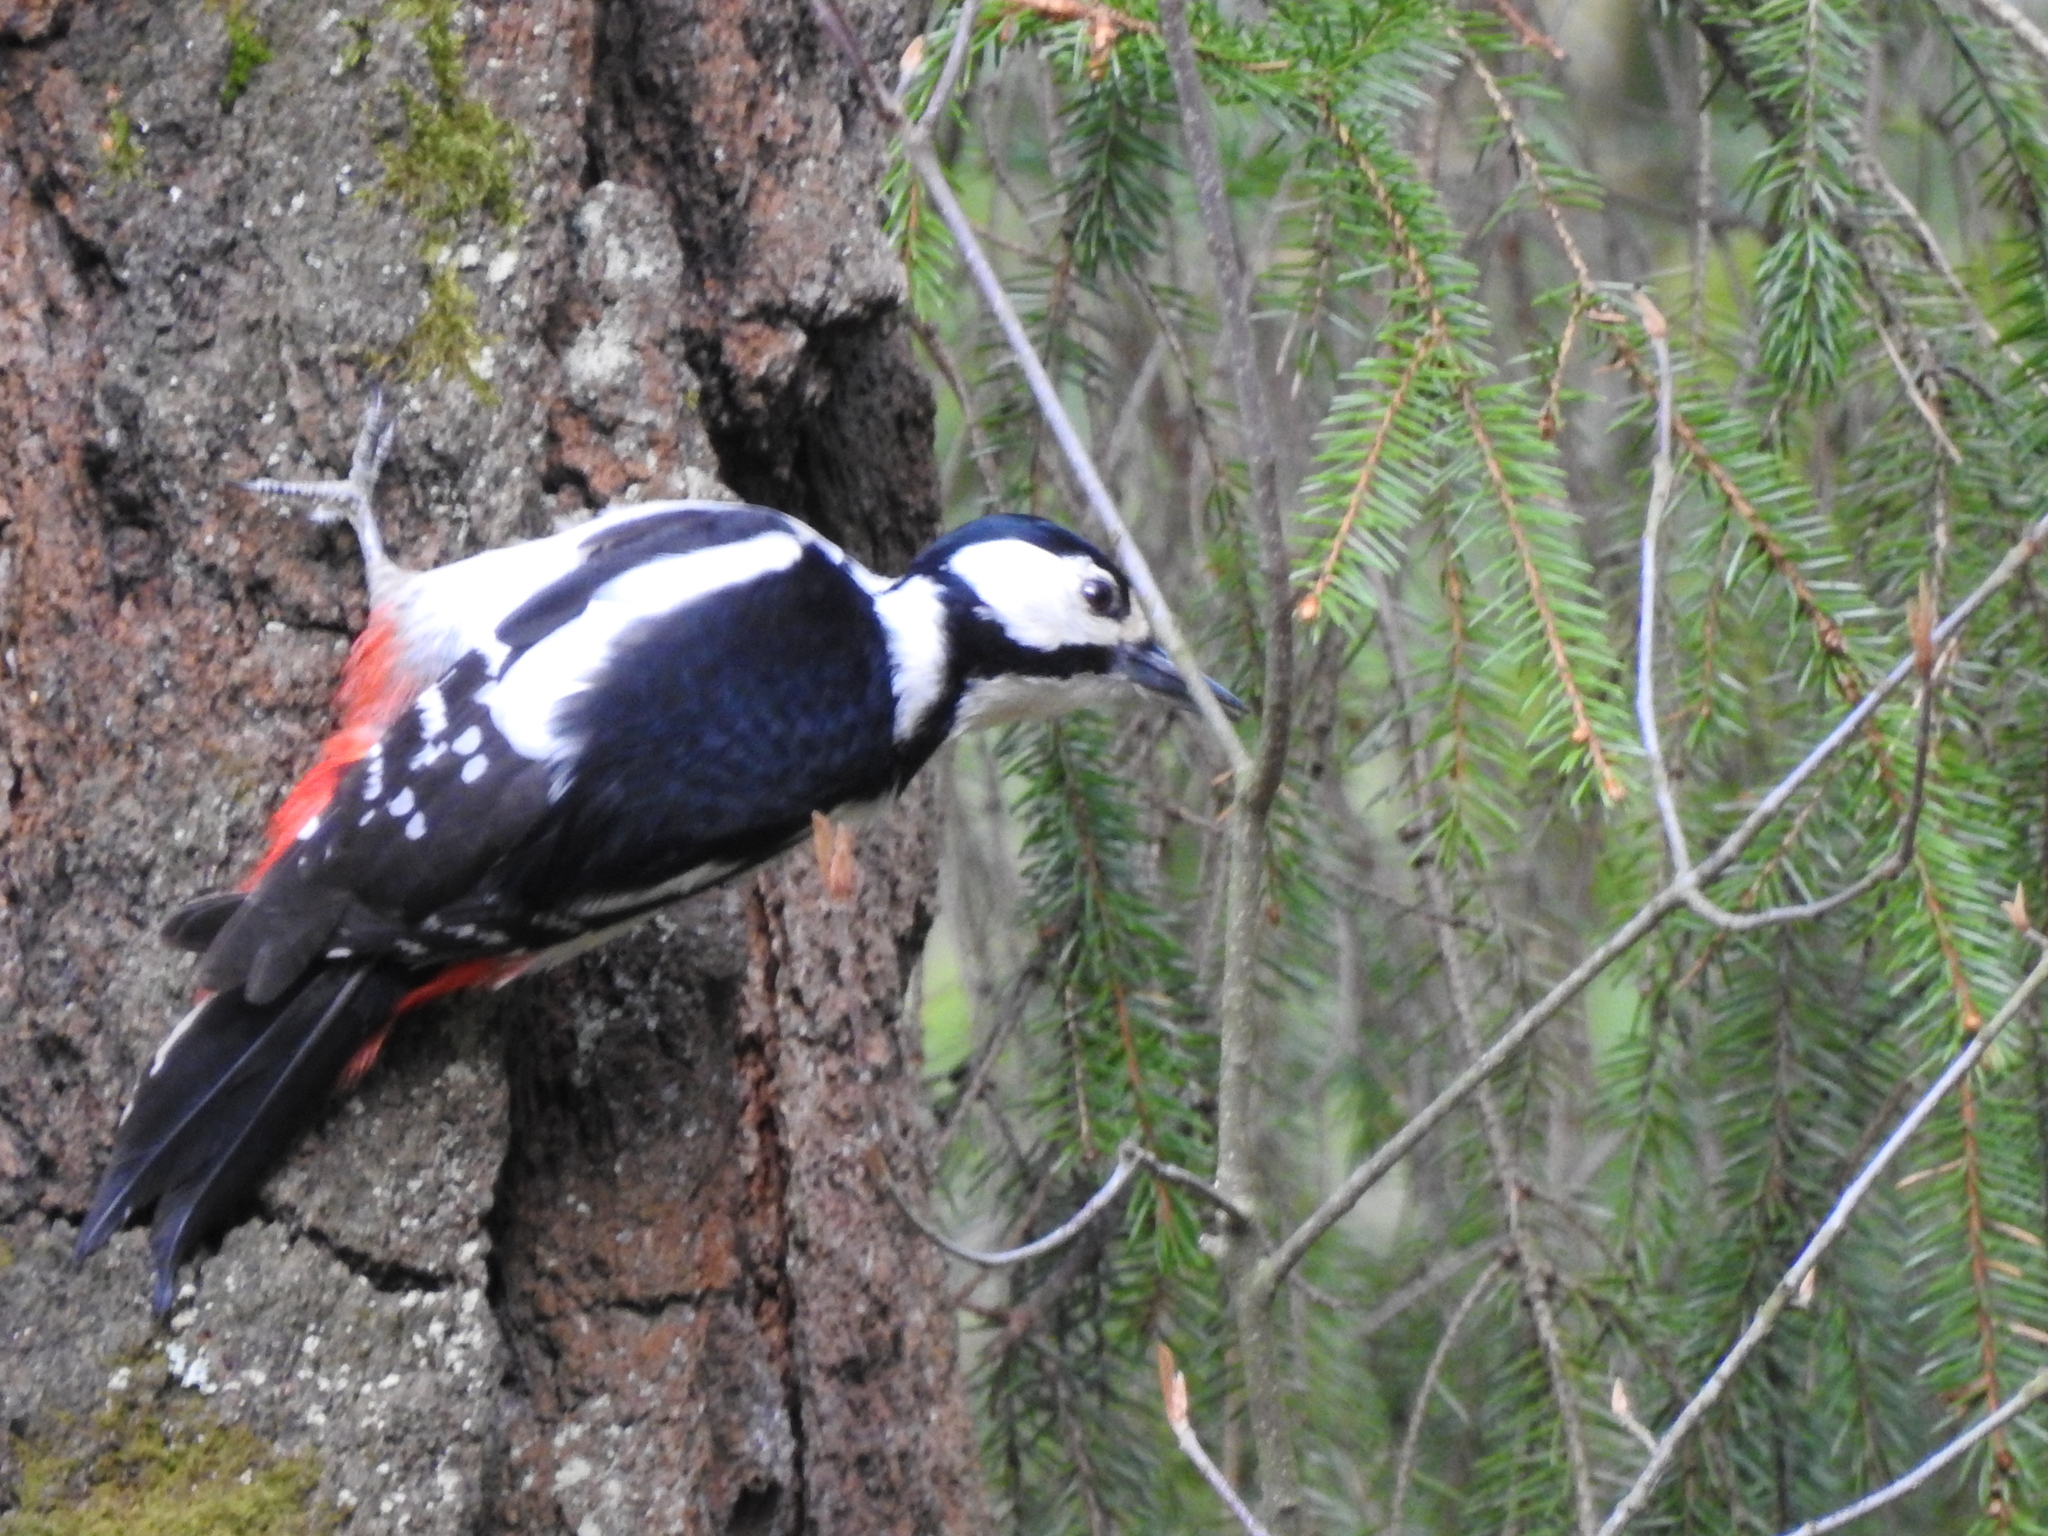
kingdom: Animalia
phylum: Chordata
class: Aves
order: Piciformes
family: Picidae
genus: Dendrocopos
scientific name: Dendrocopos major
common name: Great spotted woodpecker
